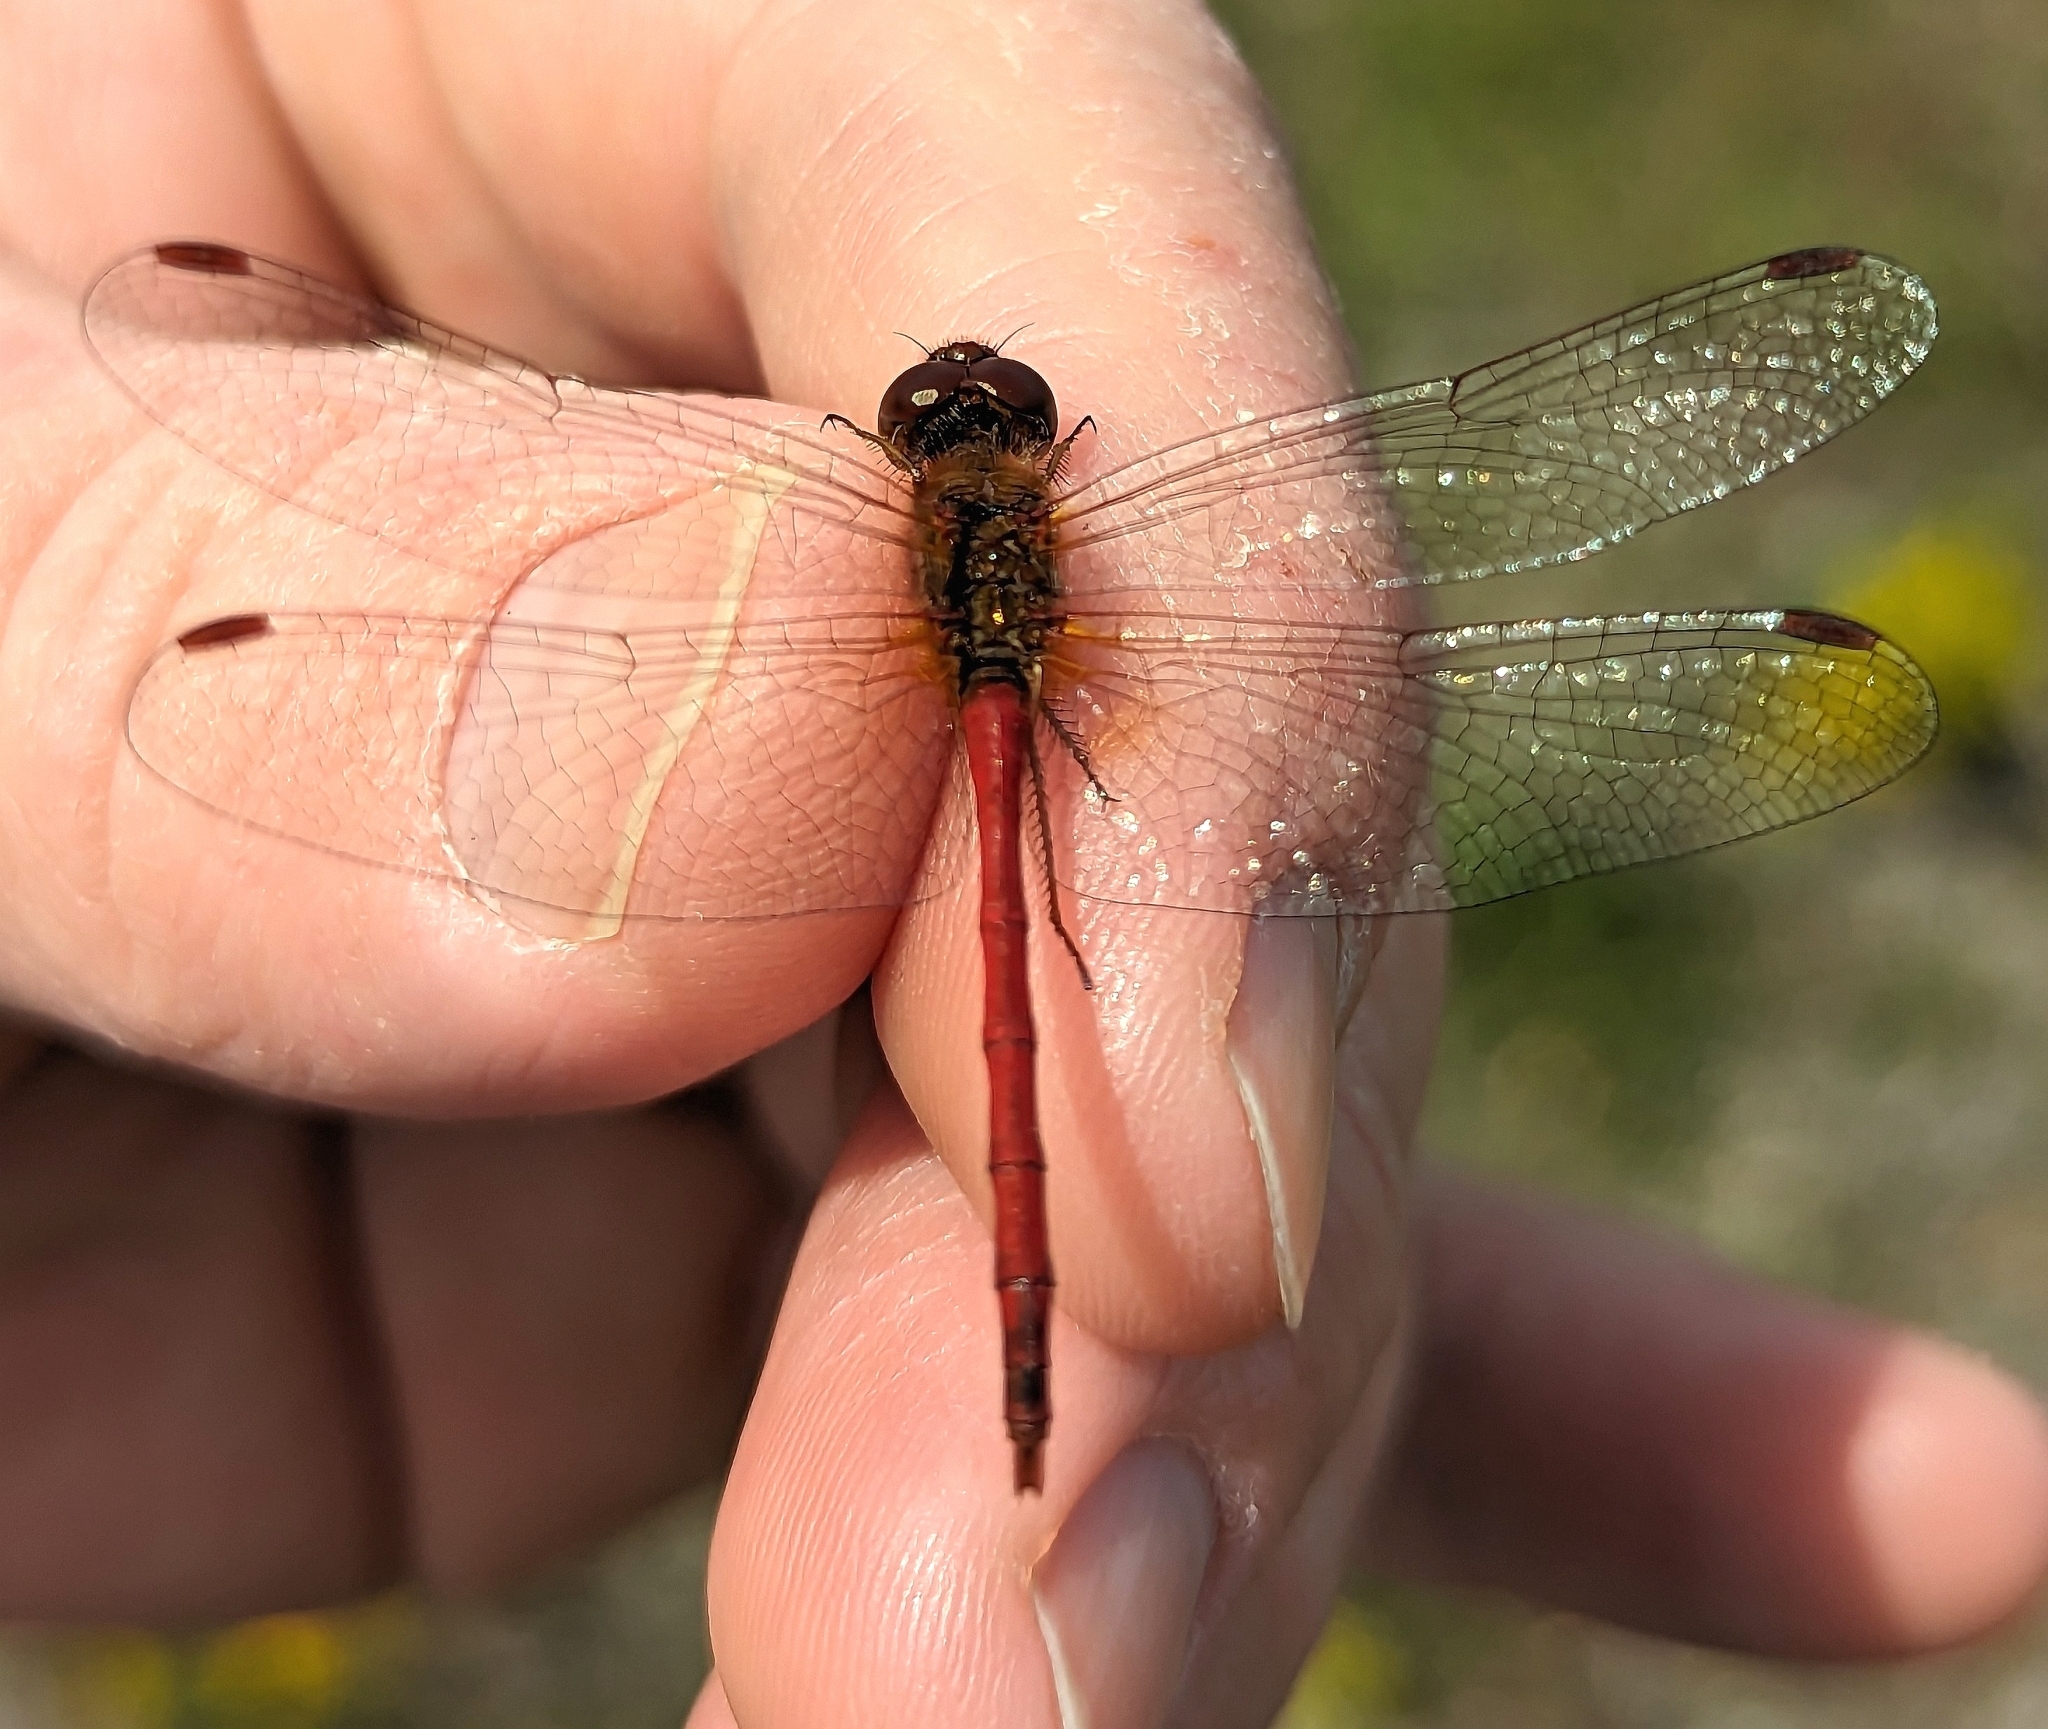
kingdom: Animalia
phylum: Arthropoda
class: Insecta
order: Odonata
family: Libellulidae
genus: Sympetrum
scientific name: Sympetrum vicinum
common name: Autumn meadowhawk
